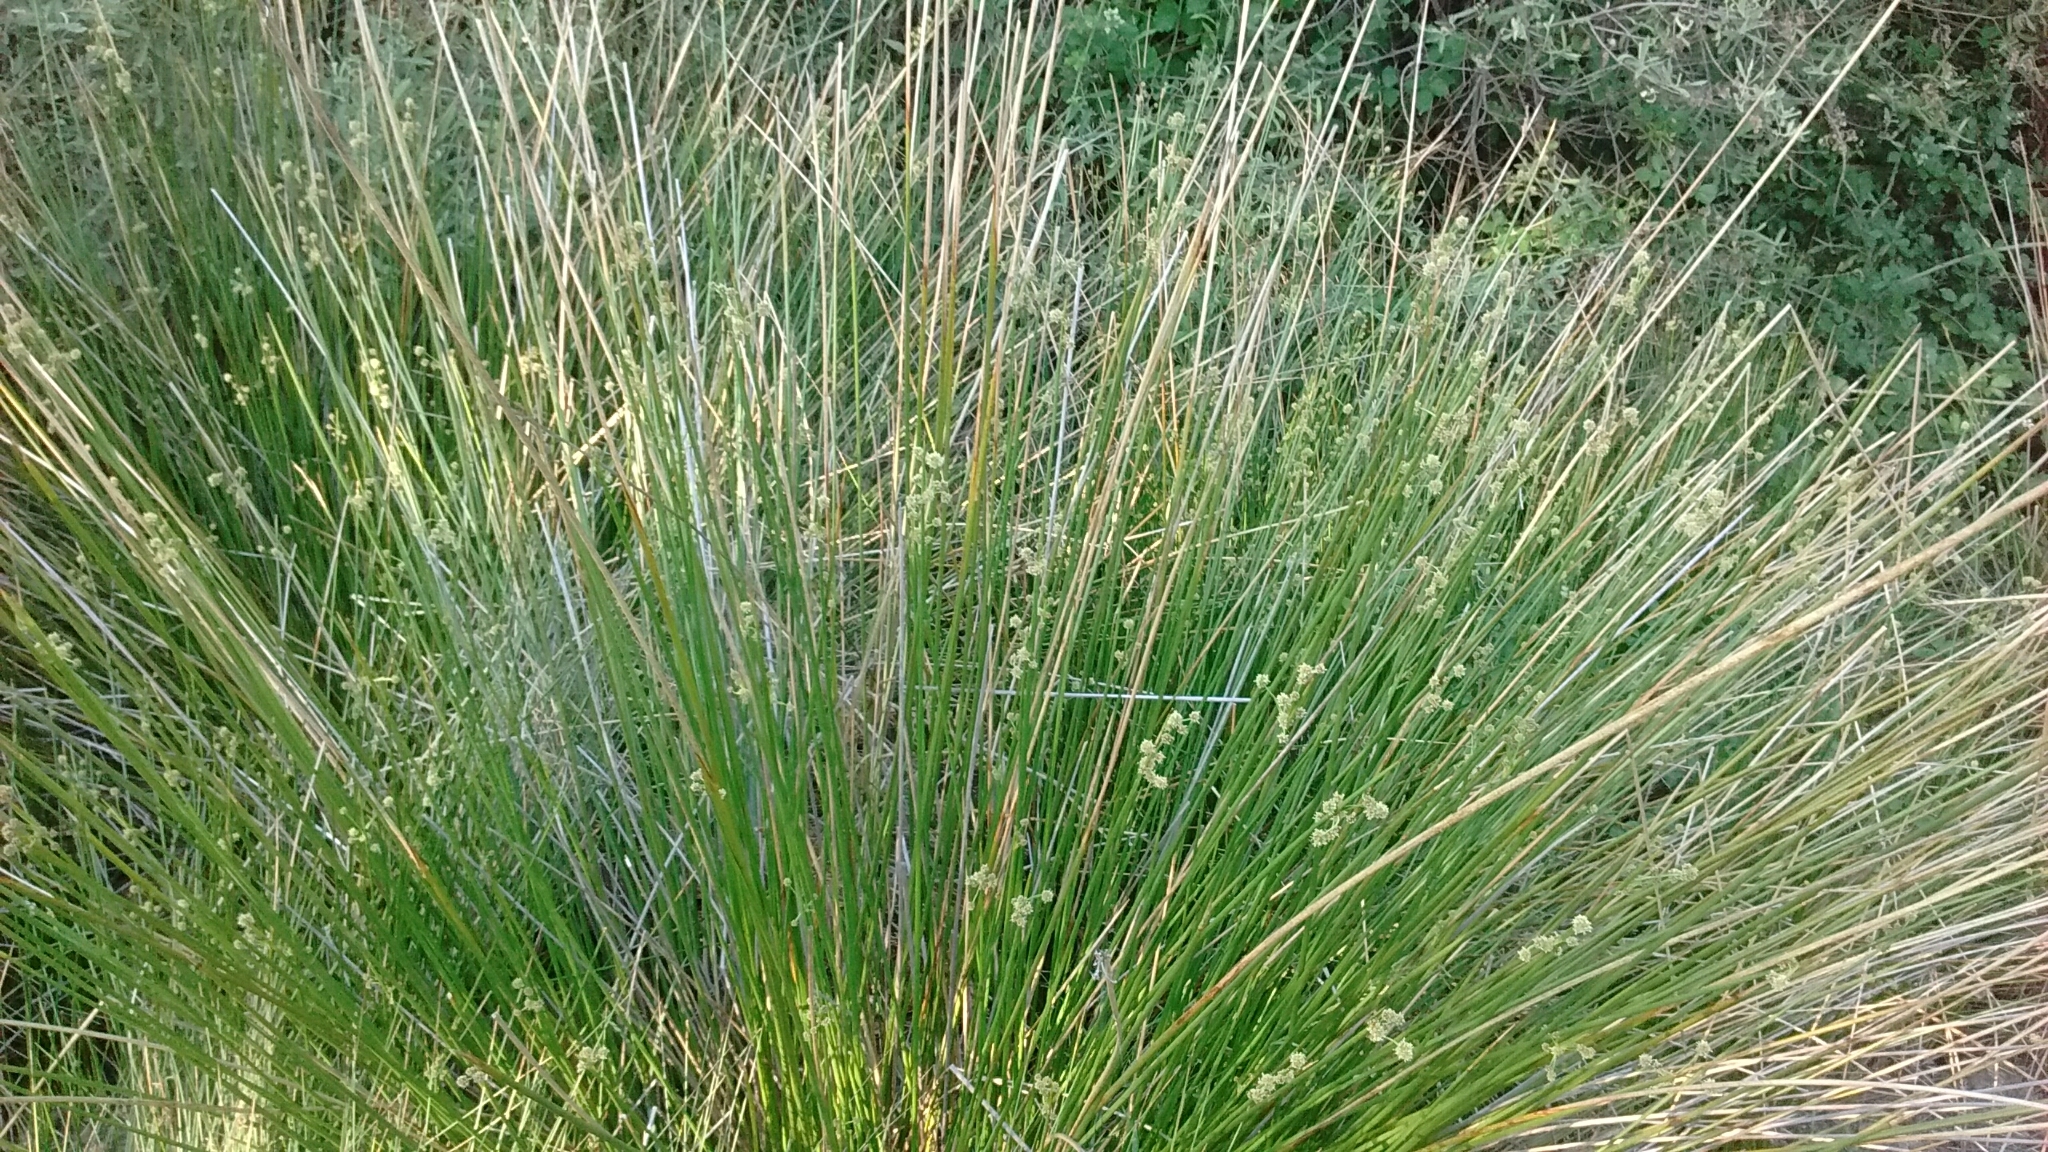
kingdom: Plantae
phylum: Tracheophyta
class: Liliopsida
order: Poales
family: Cyperaceae
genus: Scirpoides
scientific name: Scirpoides holoschoenus
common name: Round-headed club-rush
